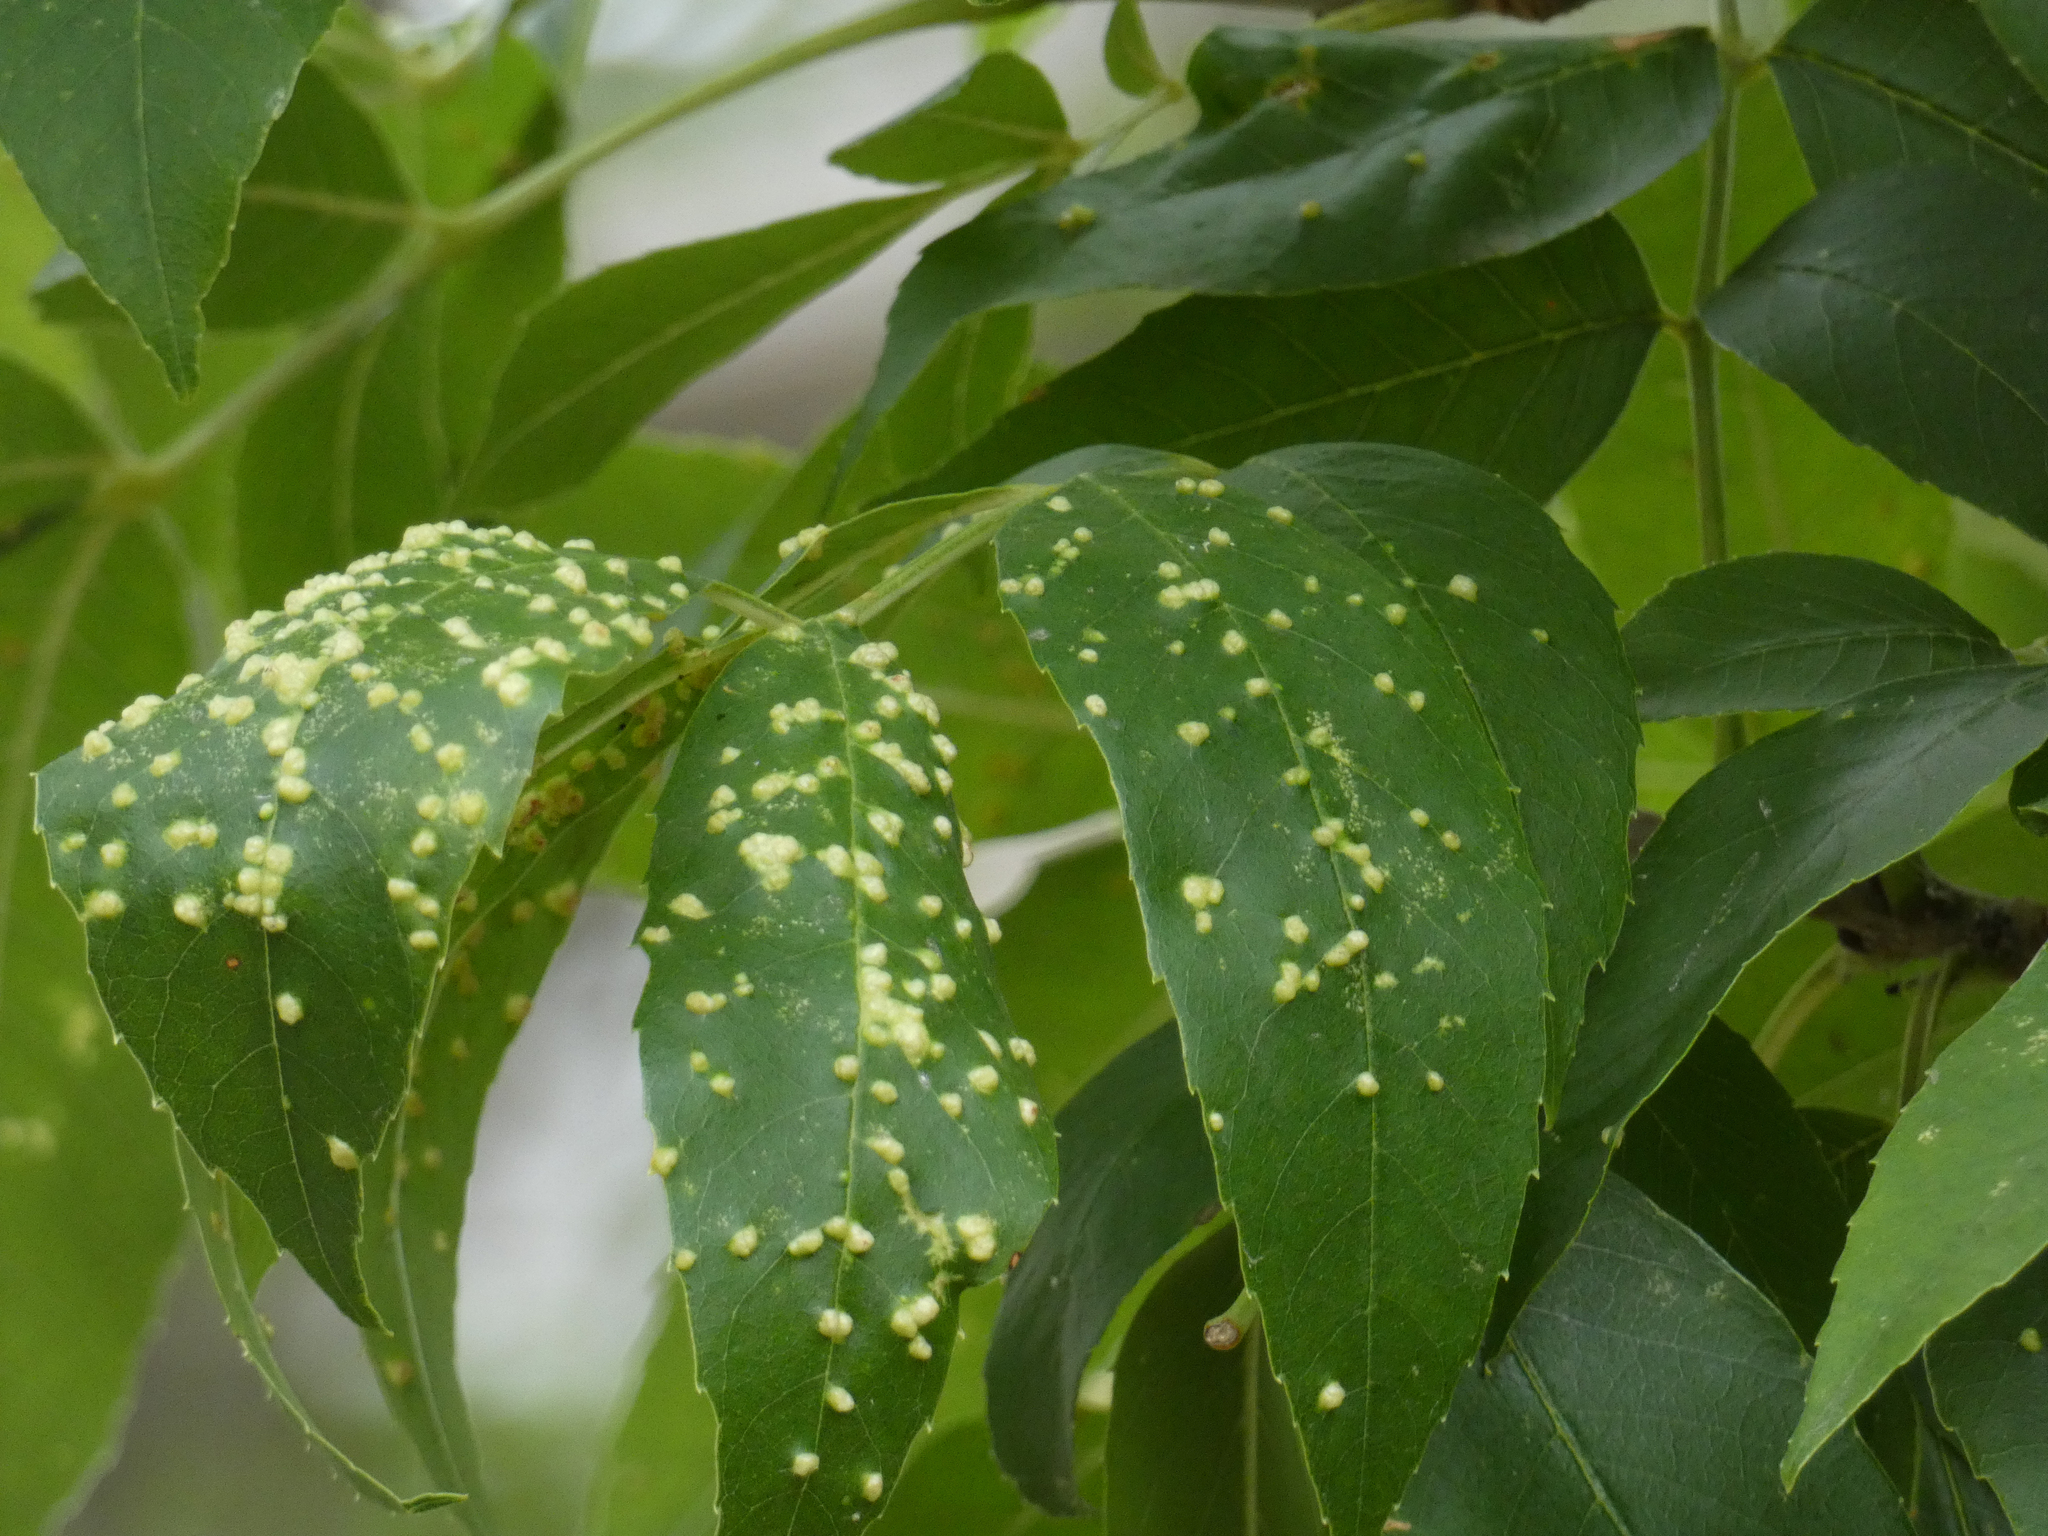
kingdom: Animalia
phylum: Arthropoda
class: Arachnida
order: Trombidiformes
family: Eriophyidae
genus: Aceria
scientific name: Aceria fraxinicola
